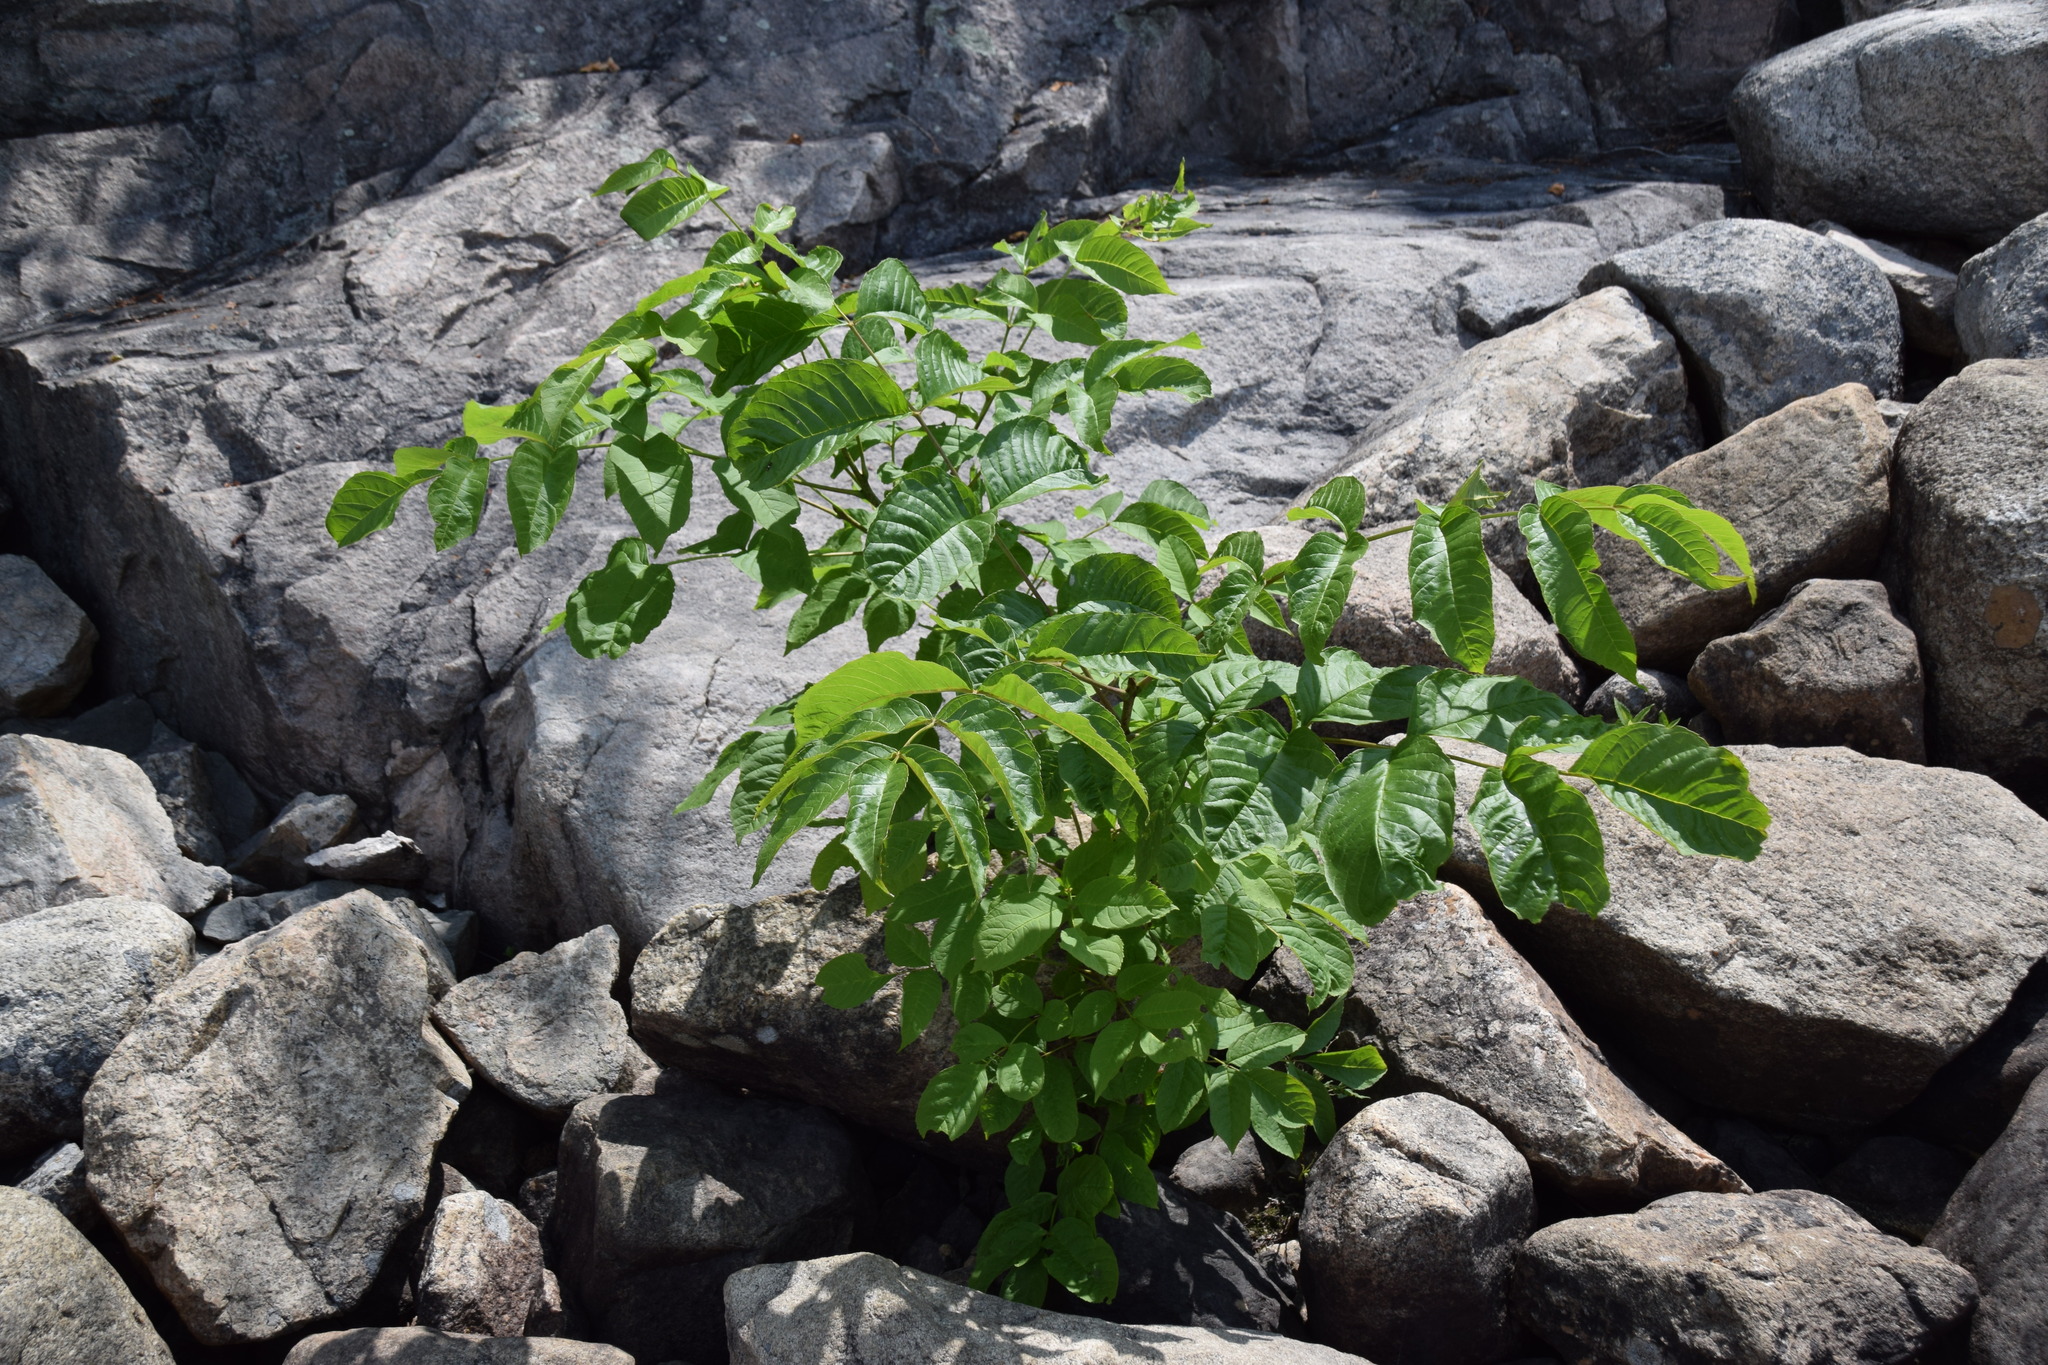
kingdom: Plantae
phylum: Tracheophyta
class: Magnoliopsida
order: Lamiales
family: Oleaceae
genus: Fraxinus
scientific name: Fraxinus nigra
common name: Black ash
